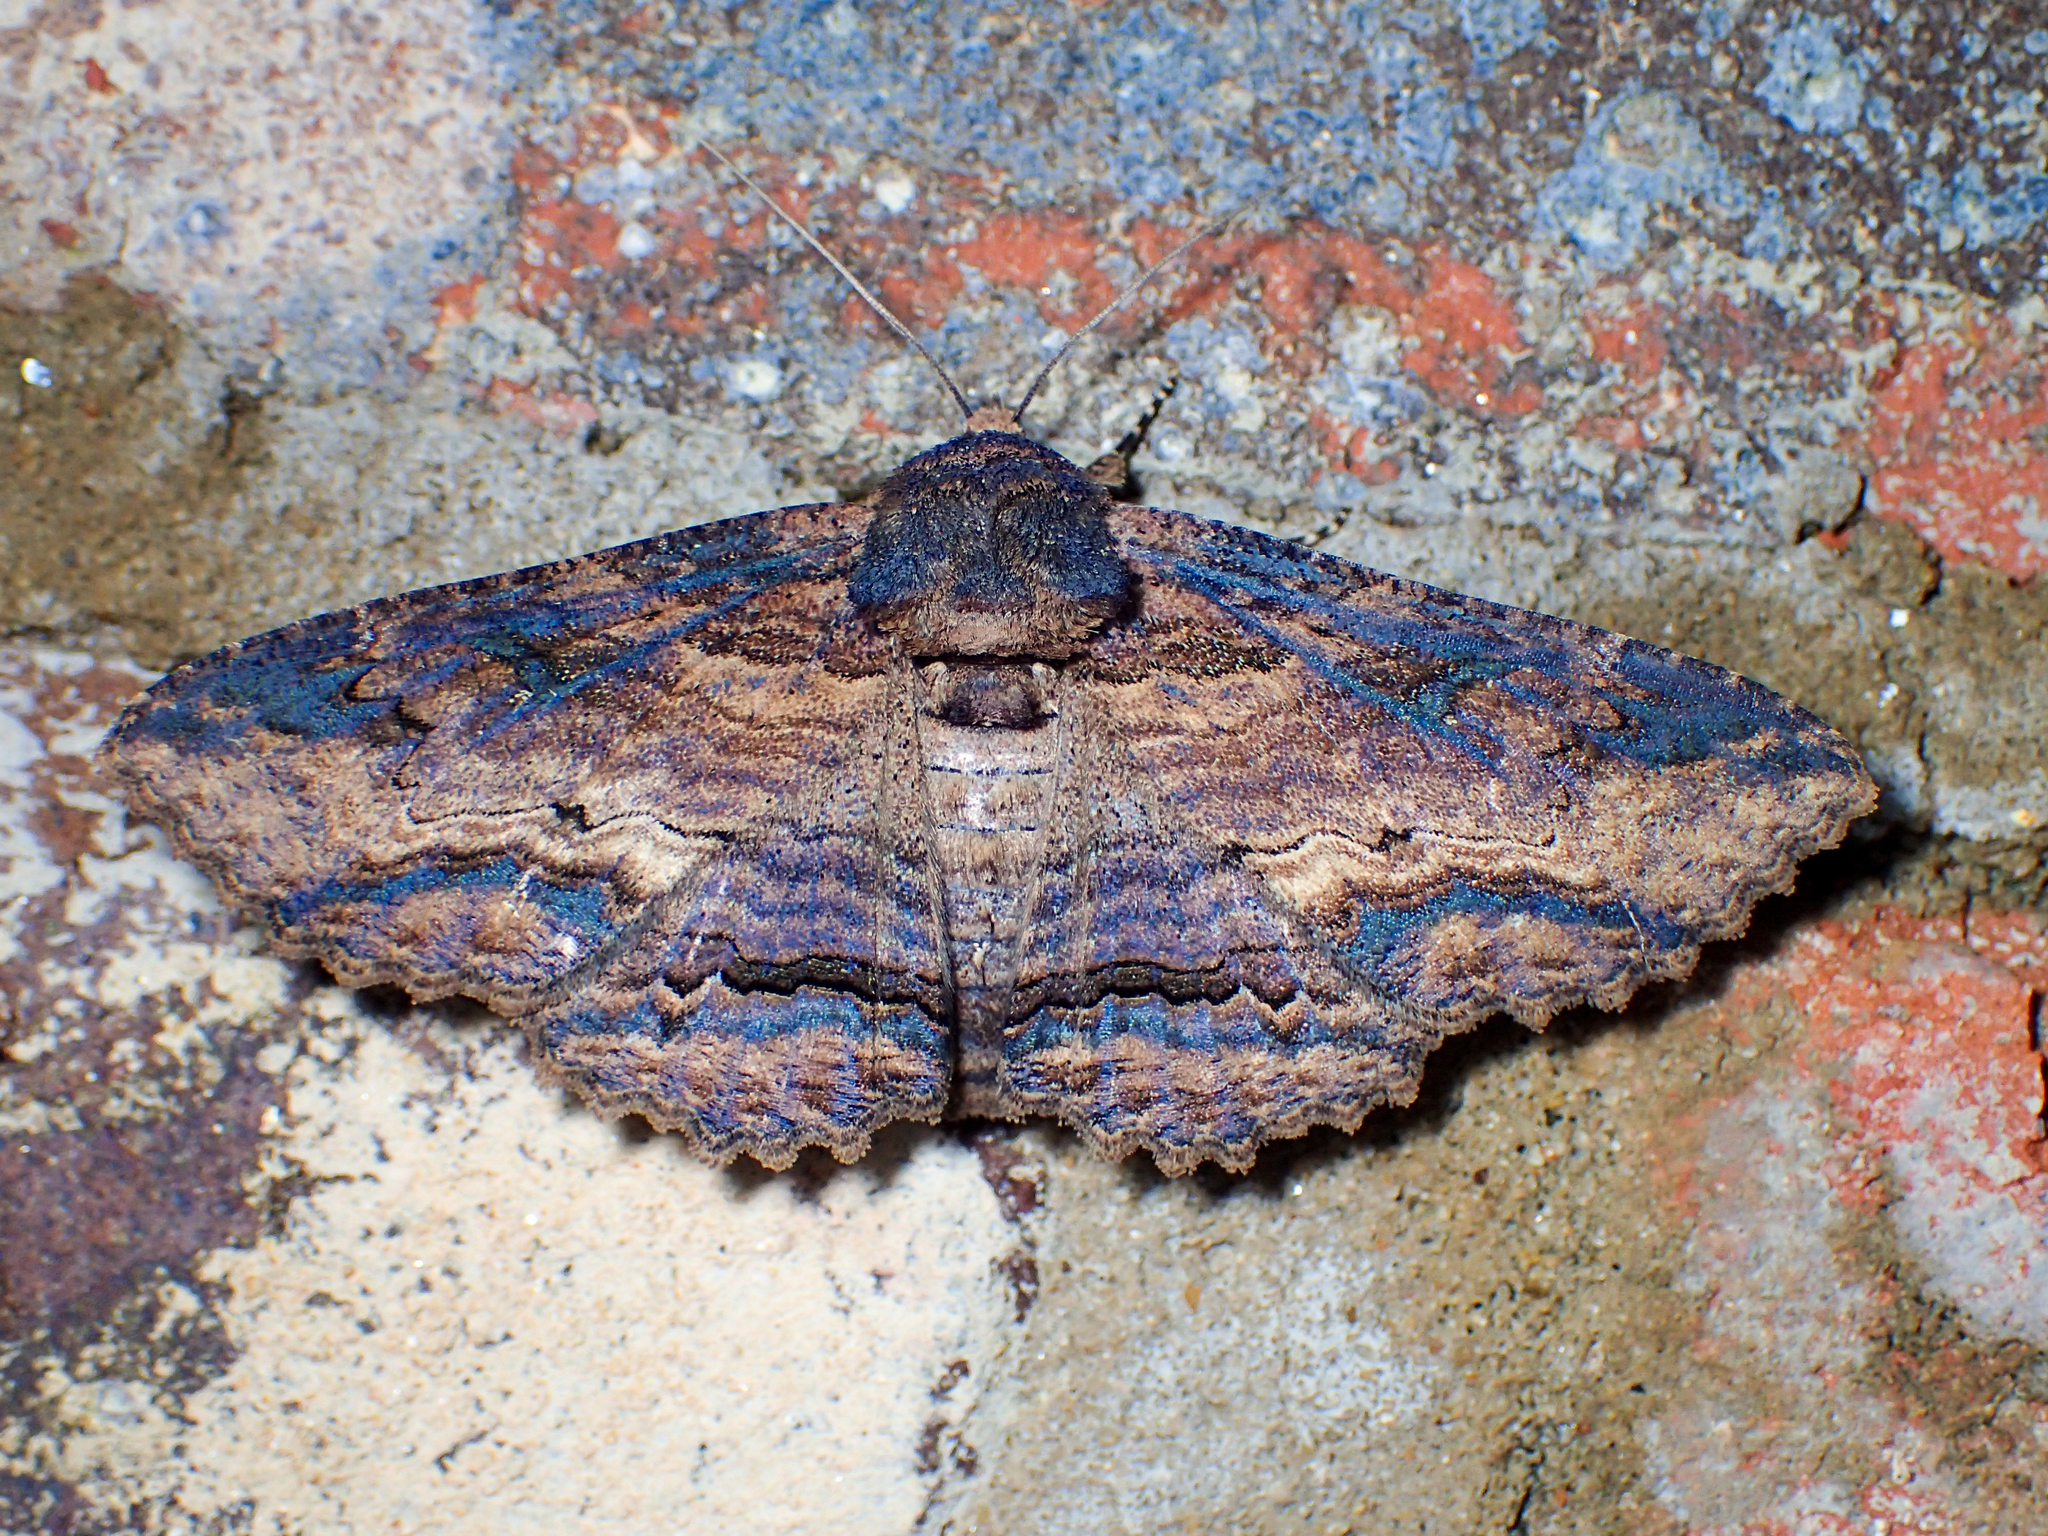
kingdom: Animalia
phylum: Arthropoda
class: Insecta
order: Lepidoptera
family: Erebidae
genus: Zale
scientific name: Zale lunata
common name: Lunate zale moth
